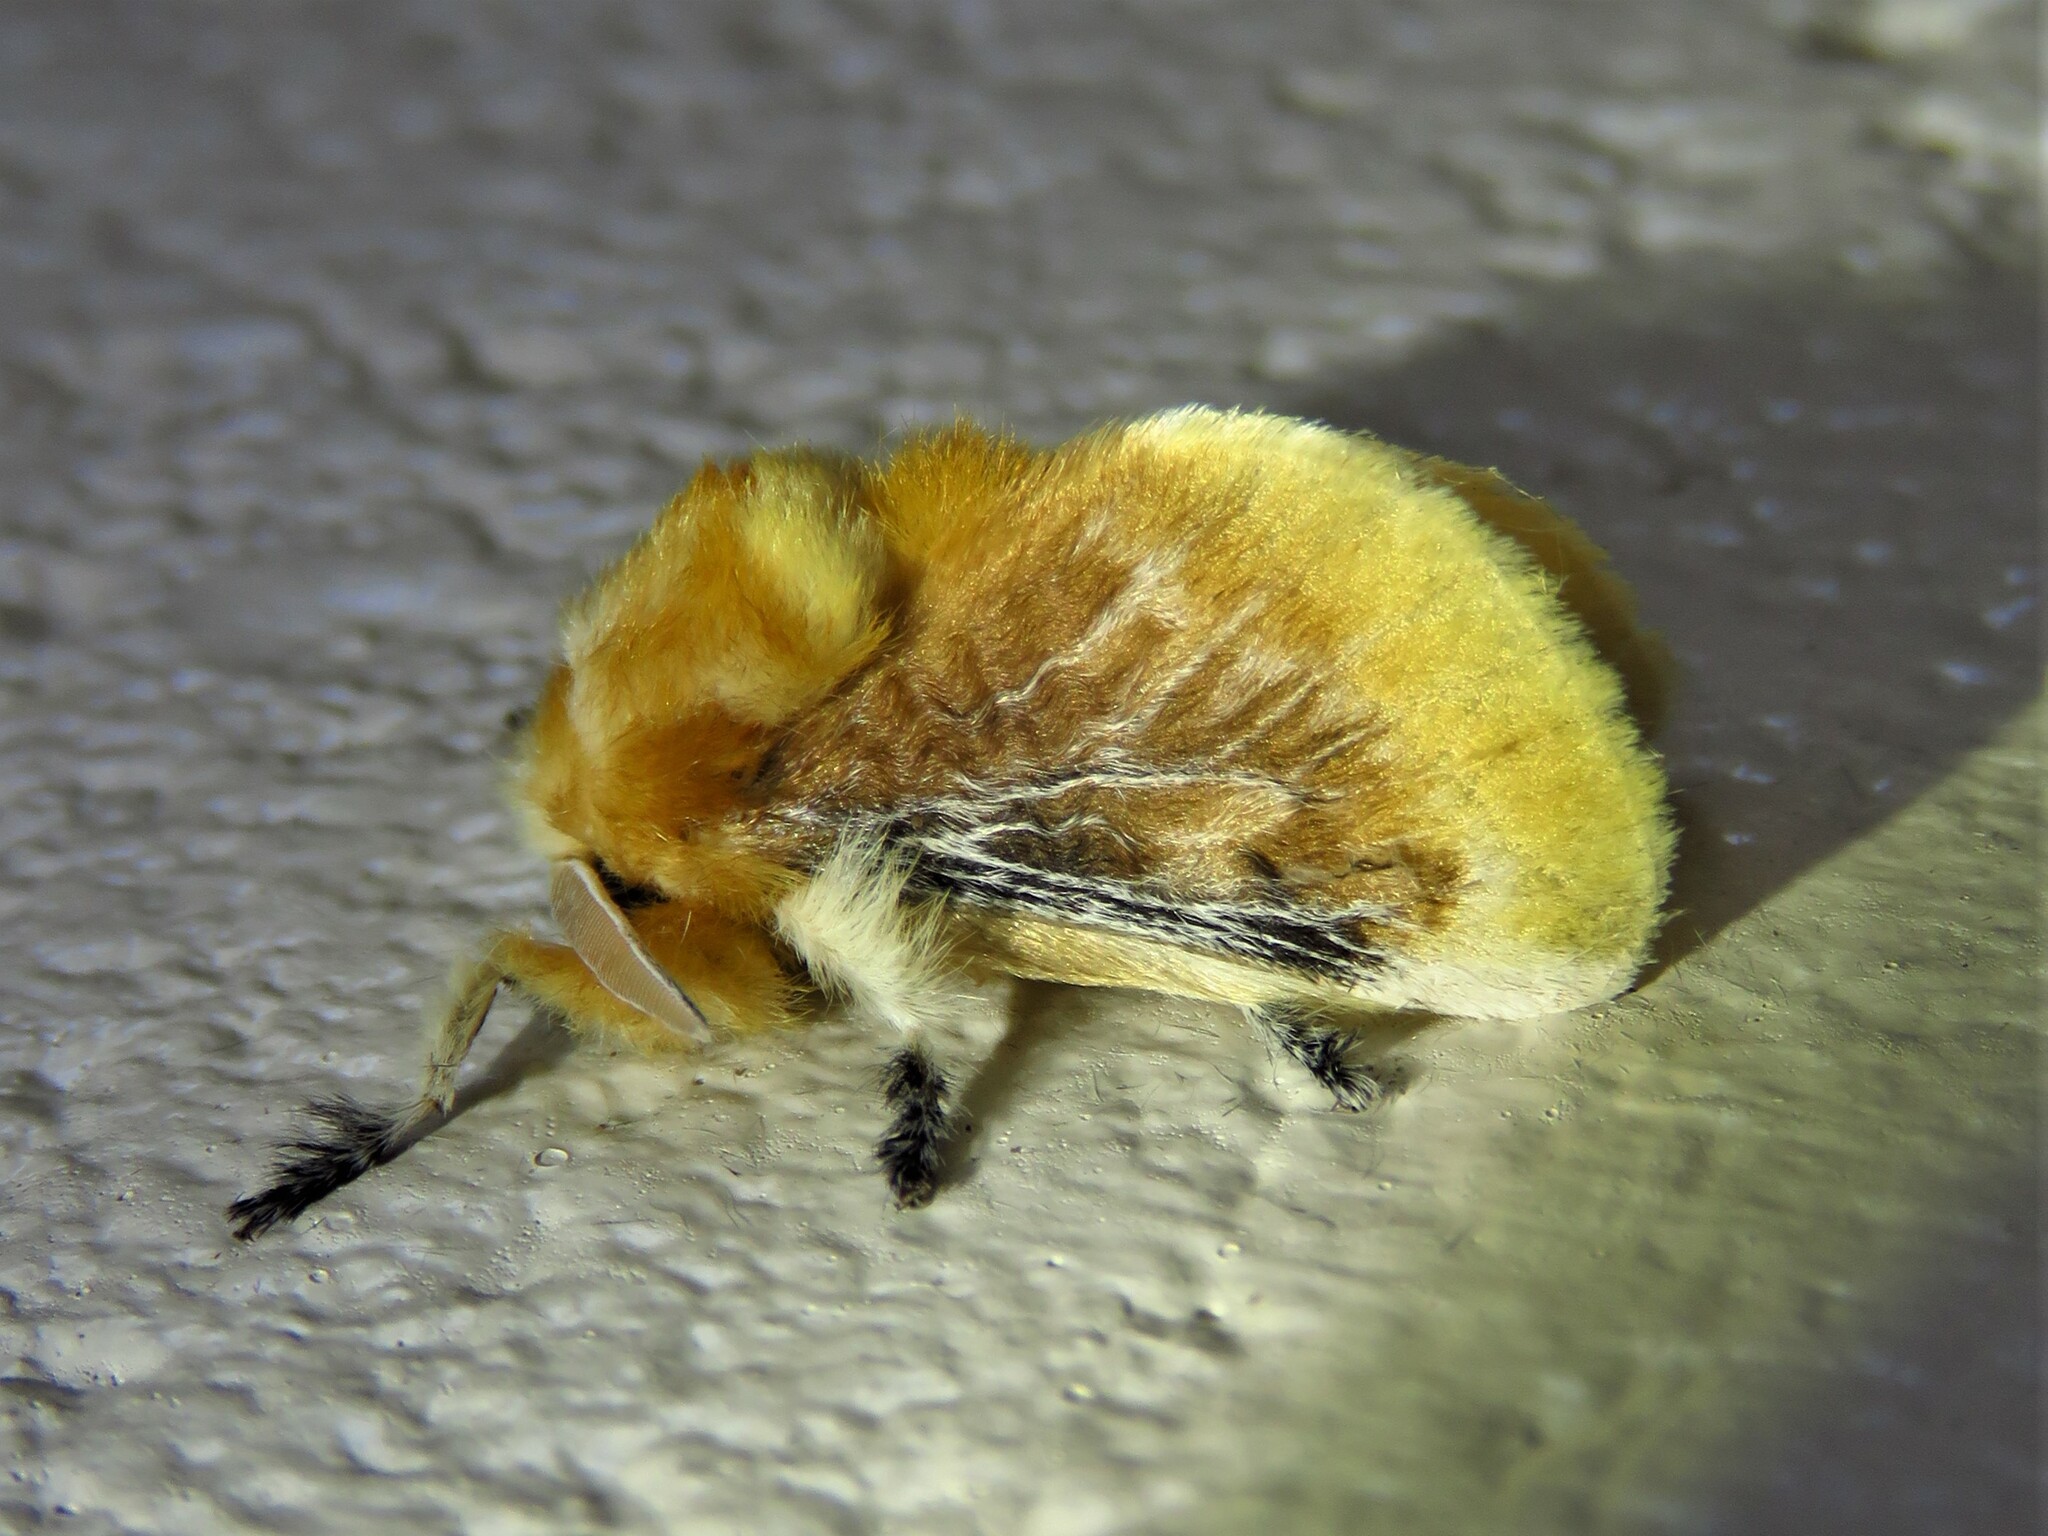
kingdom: Animalia
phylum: Arthropoda
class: Insecta
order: Lepidoptera
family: Megalopygidae
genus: Megalopyge
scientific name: Megalopyge opercularis
